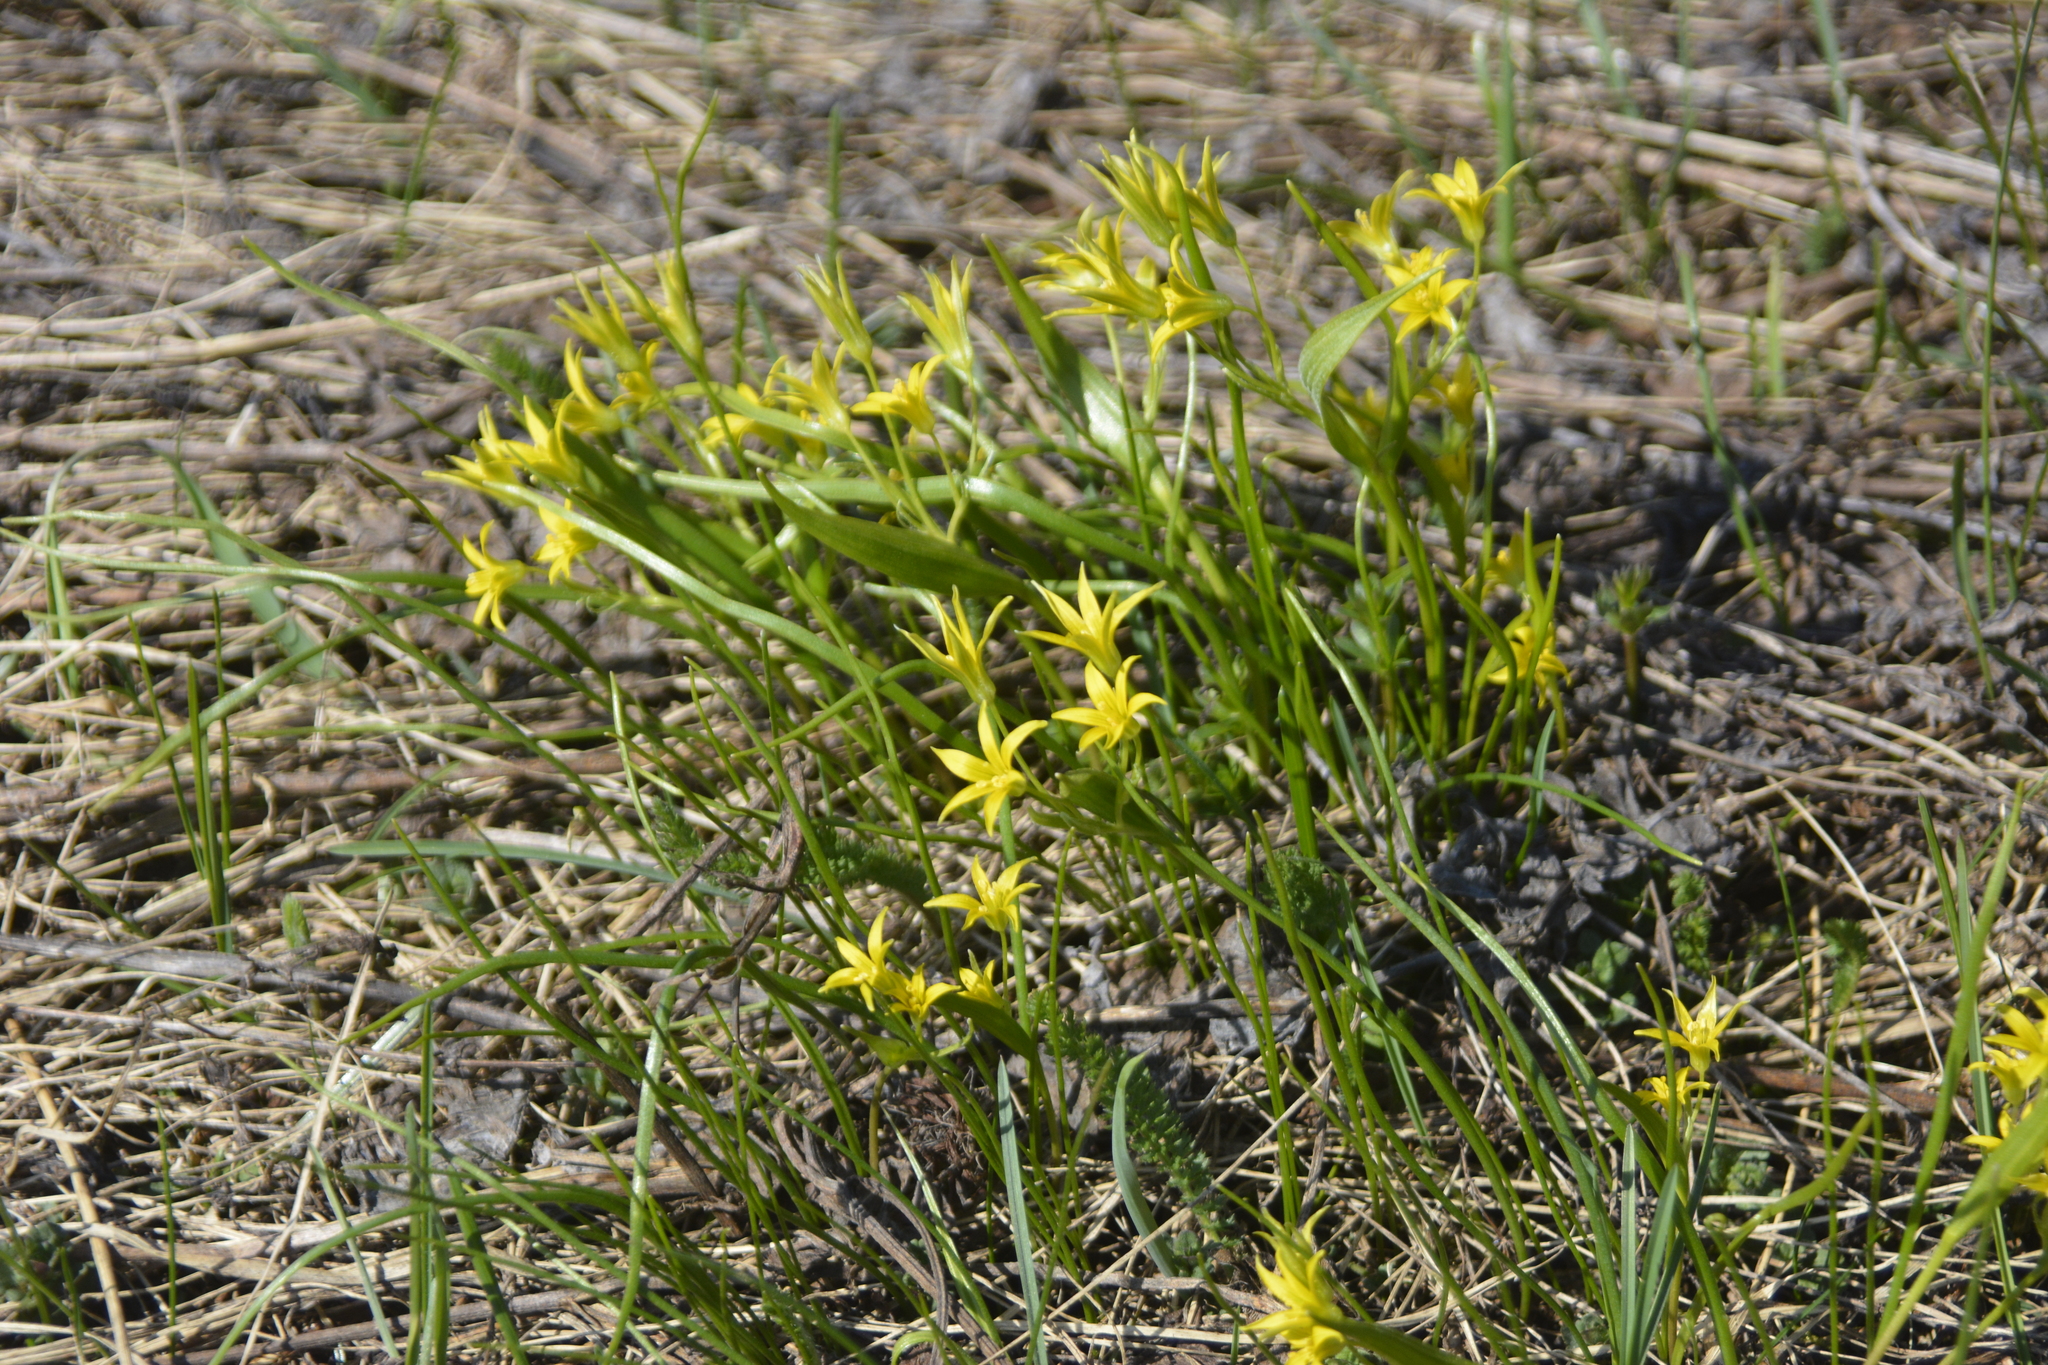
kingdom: Plantae
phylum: Tracheophyta
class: Liliopsida
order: Liliales
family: Liliaceae
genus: Gagea
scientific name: Gagea minima
